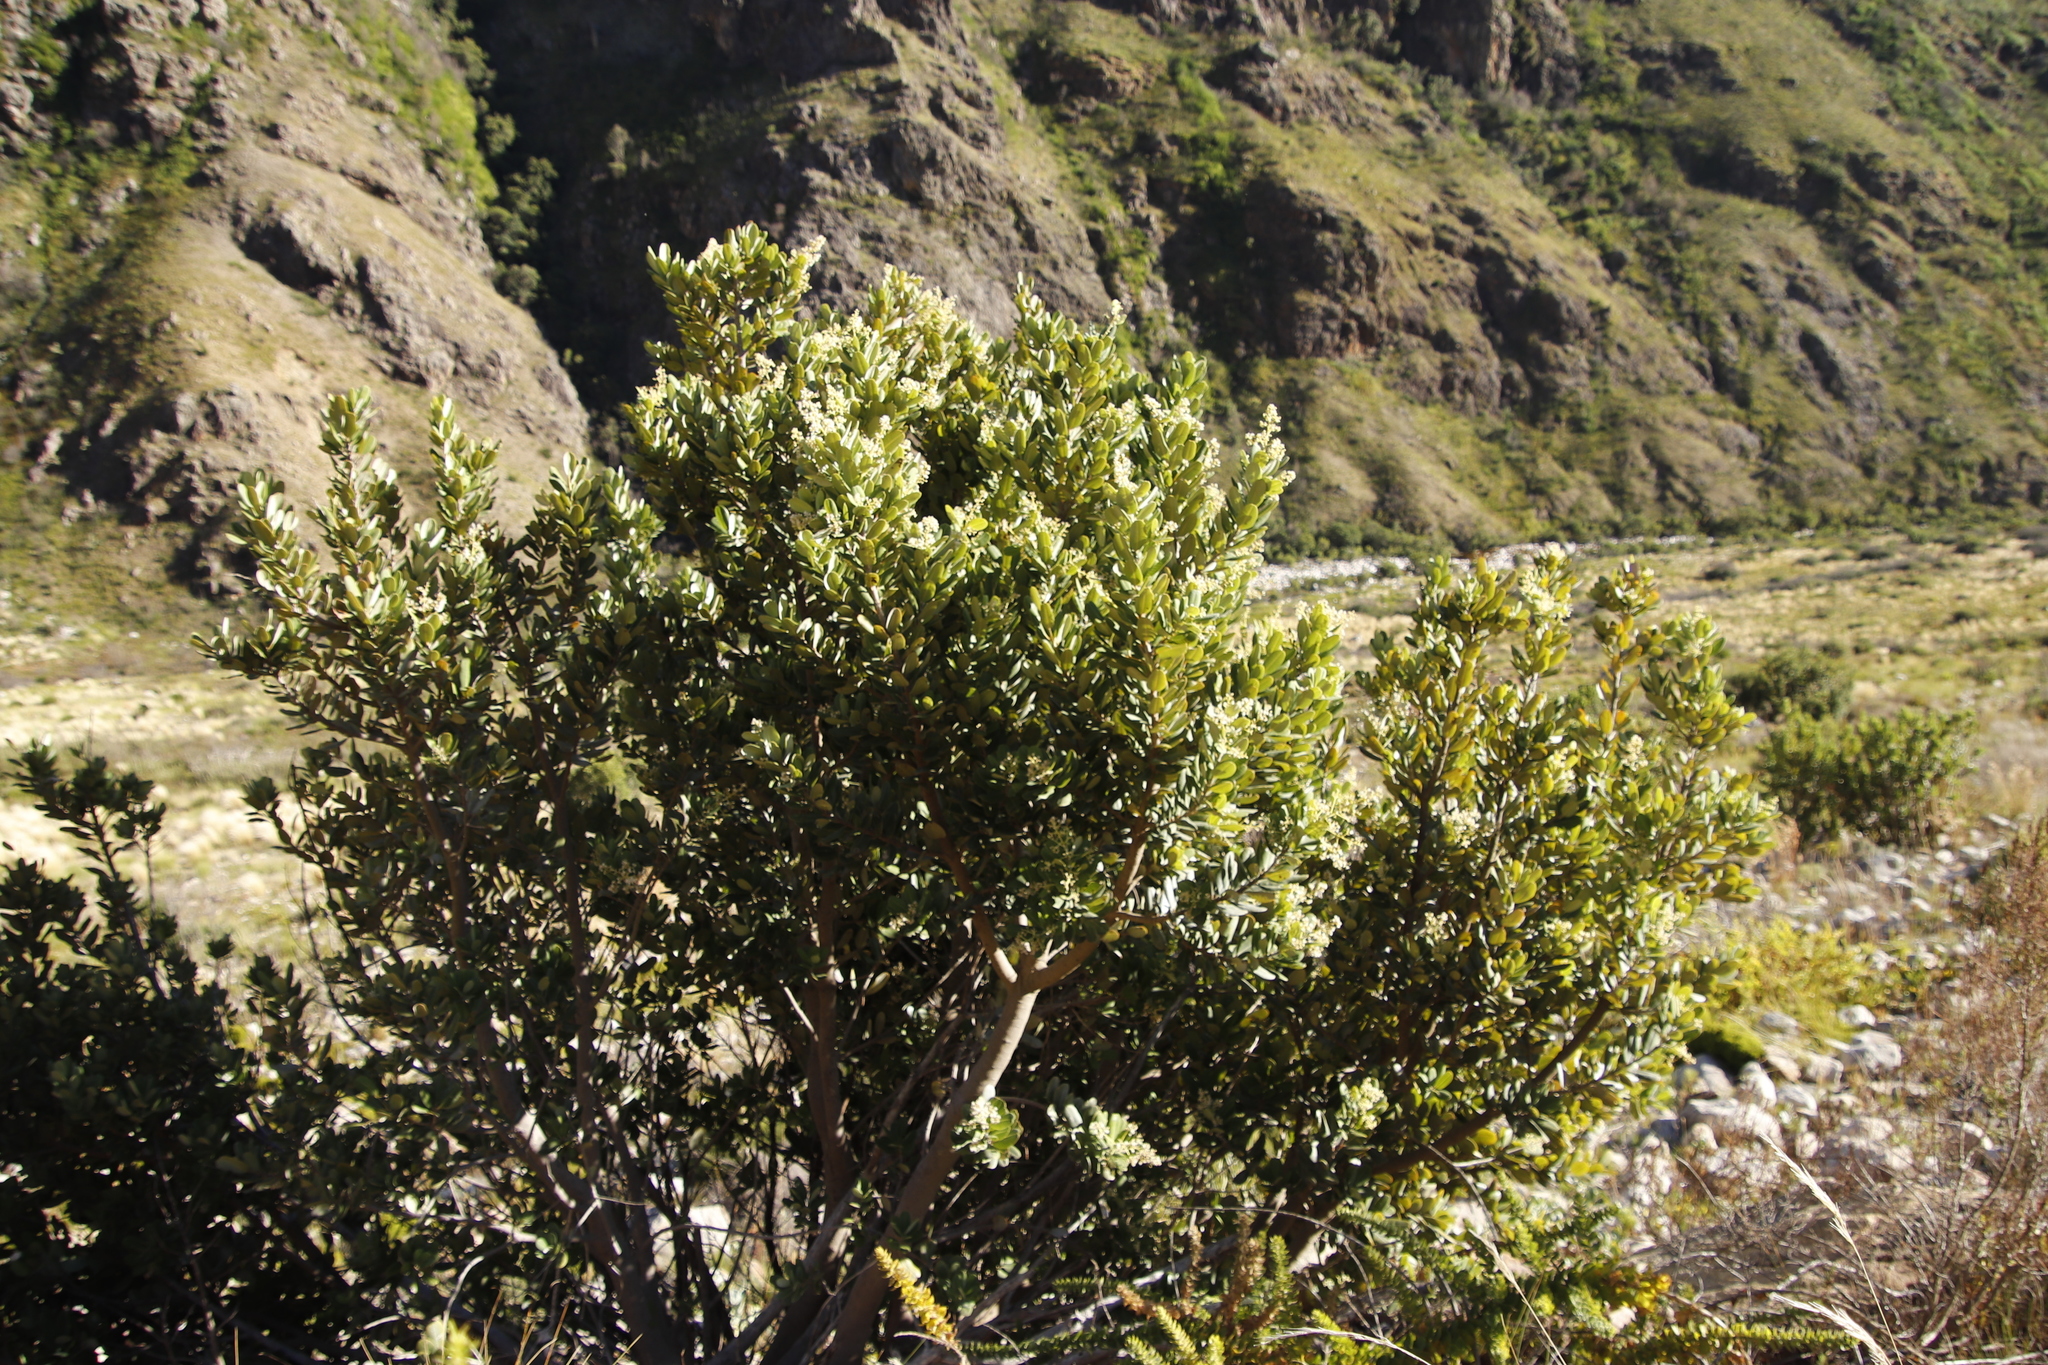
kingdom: Plantae
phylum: Tracheophyta
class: Magnoliopsida
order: Sapindales
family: Anacardiaceae
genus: Heeria
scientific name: Heeria argentea
